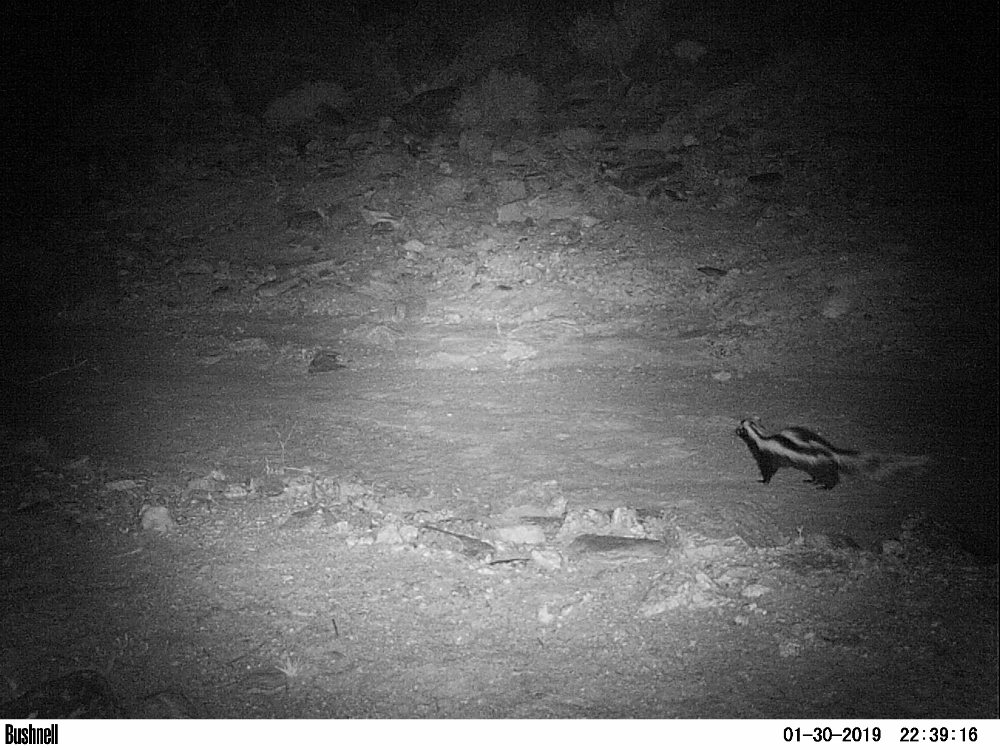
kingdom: Animalia
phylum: Chordata
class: Mammalia
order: Carnivora
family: Mustelidae
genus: Ictonyx
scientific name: Ictonyx striatus
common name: Striped polecat
